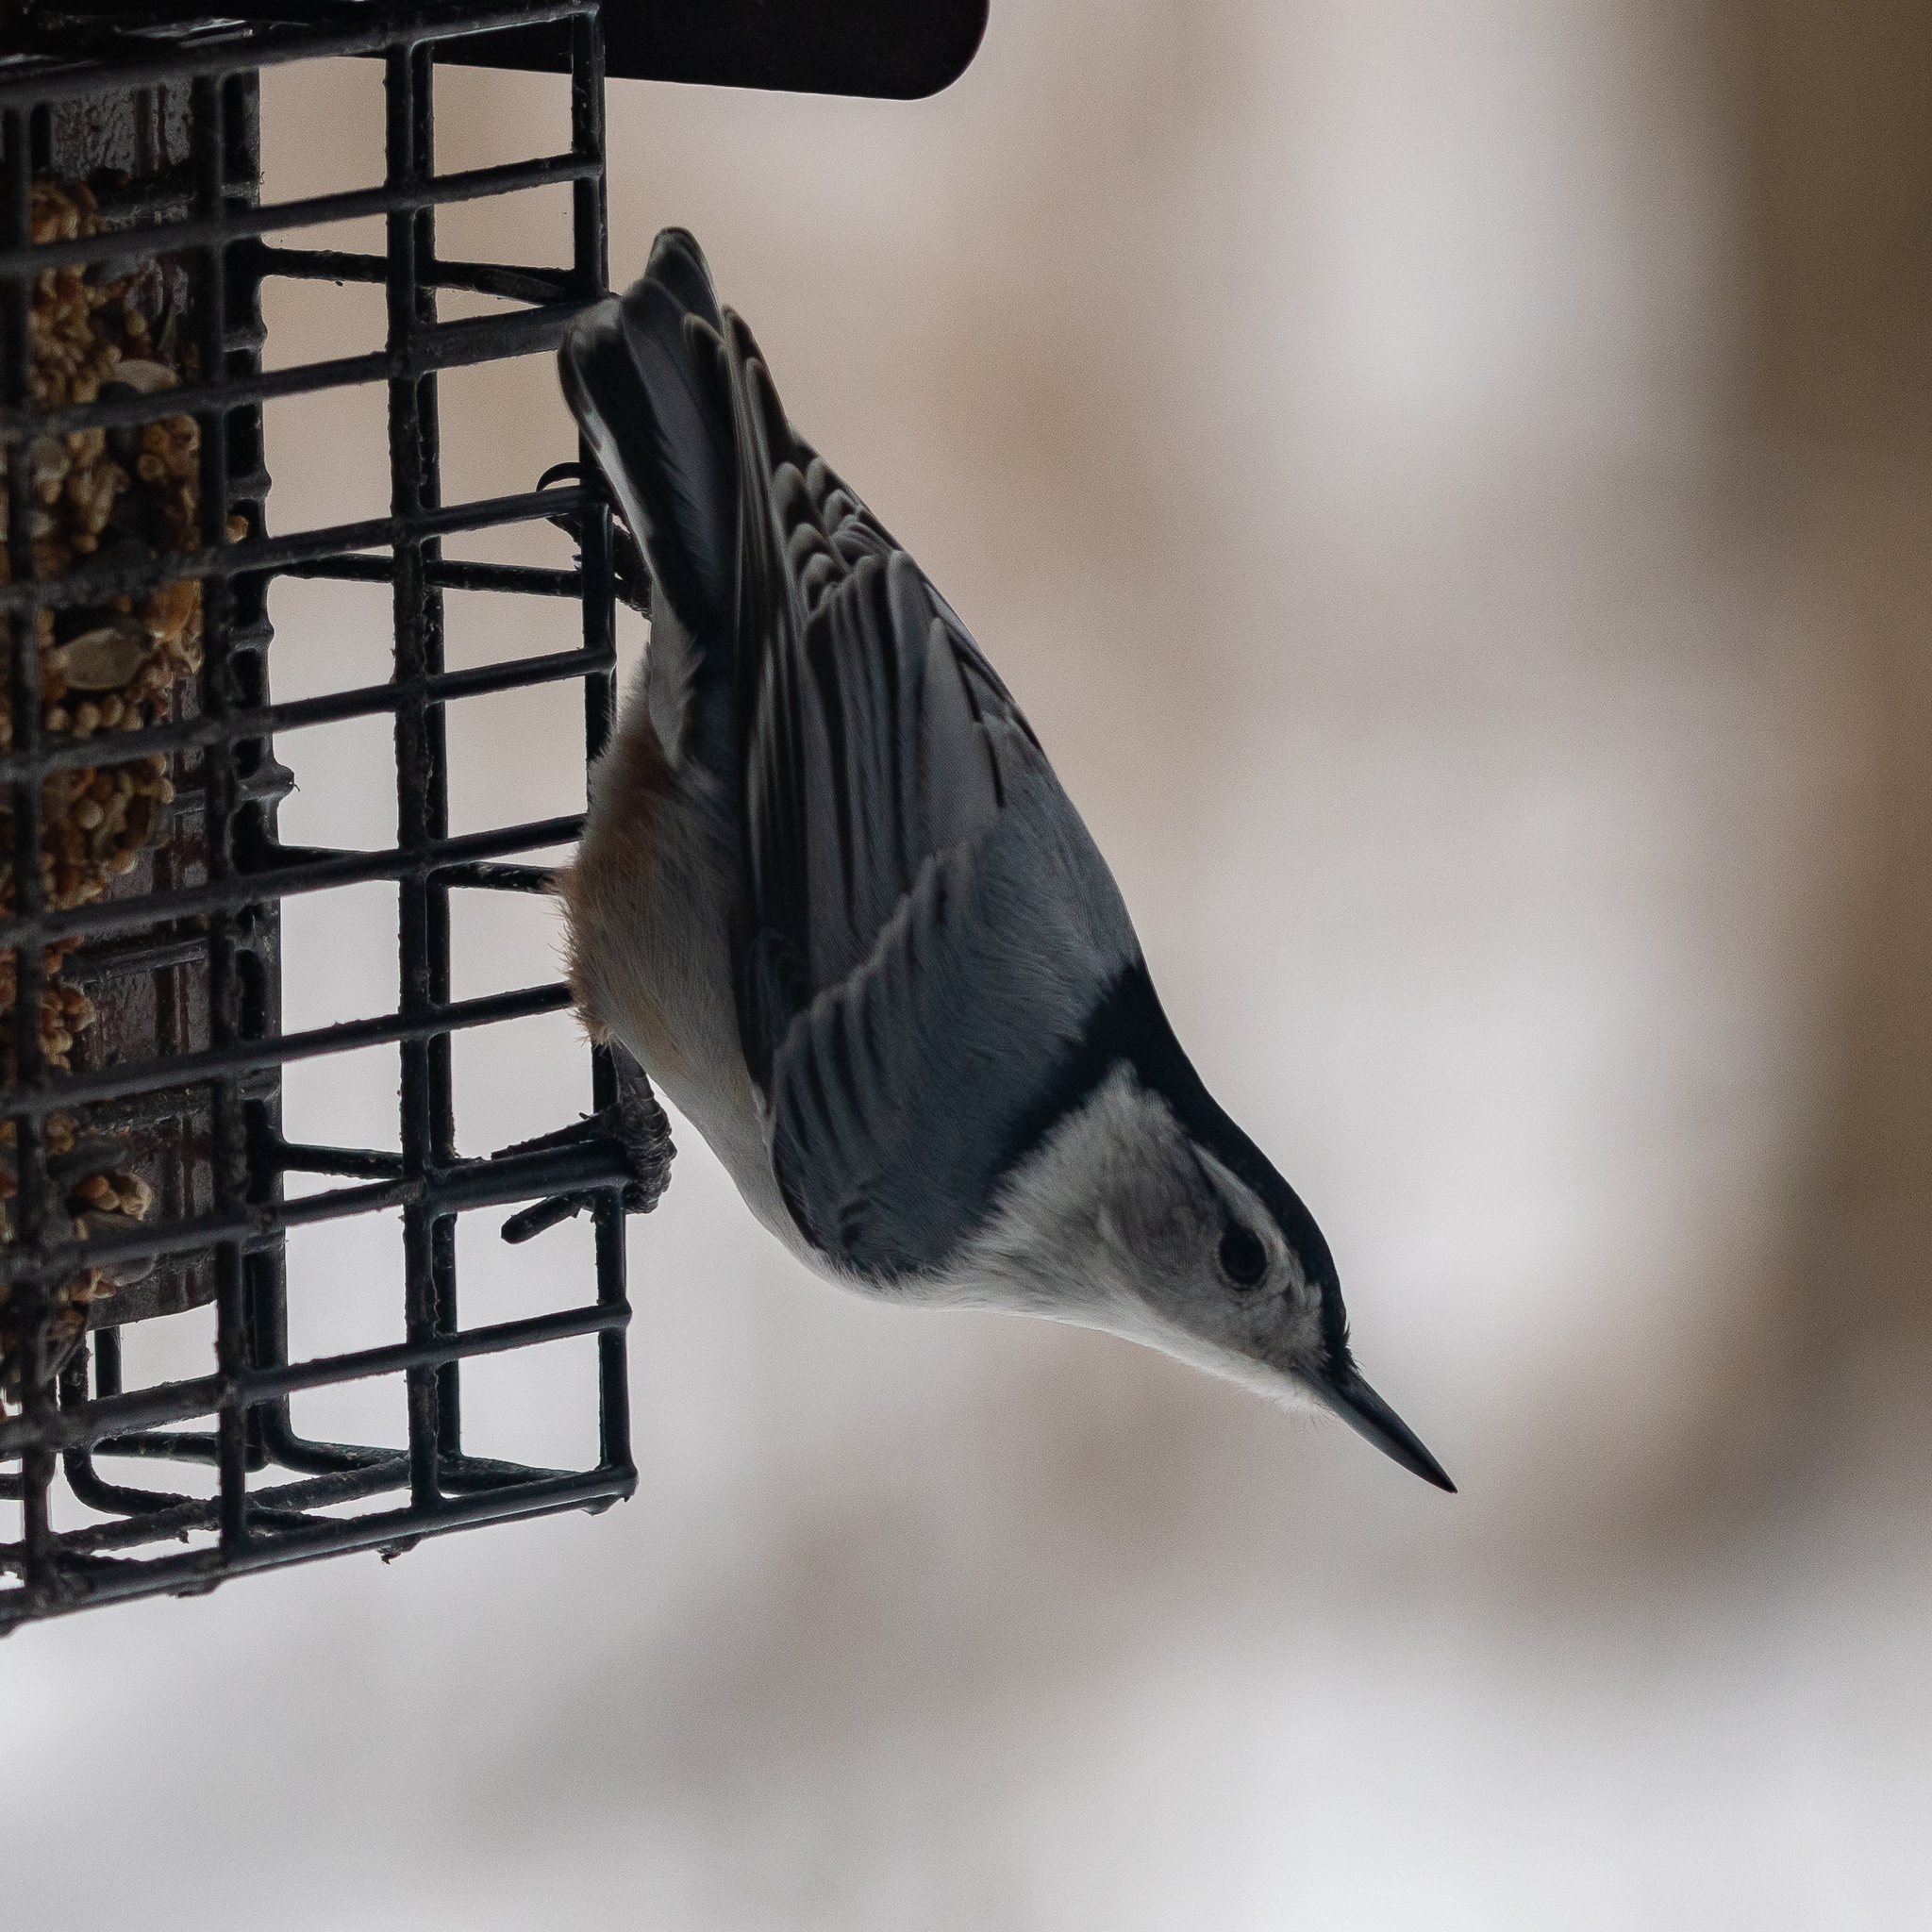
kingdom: Animalia
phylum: Chordata
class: Aves
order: Passeriformes
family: Sittidae
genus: Sitta
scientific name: Sitta carolinensis
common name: White-breasted nuthatch
